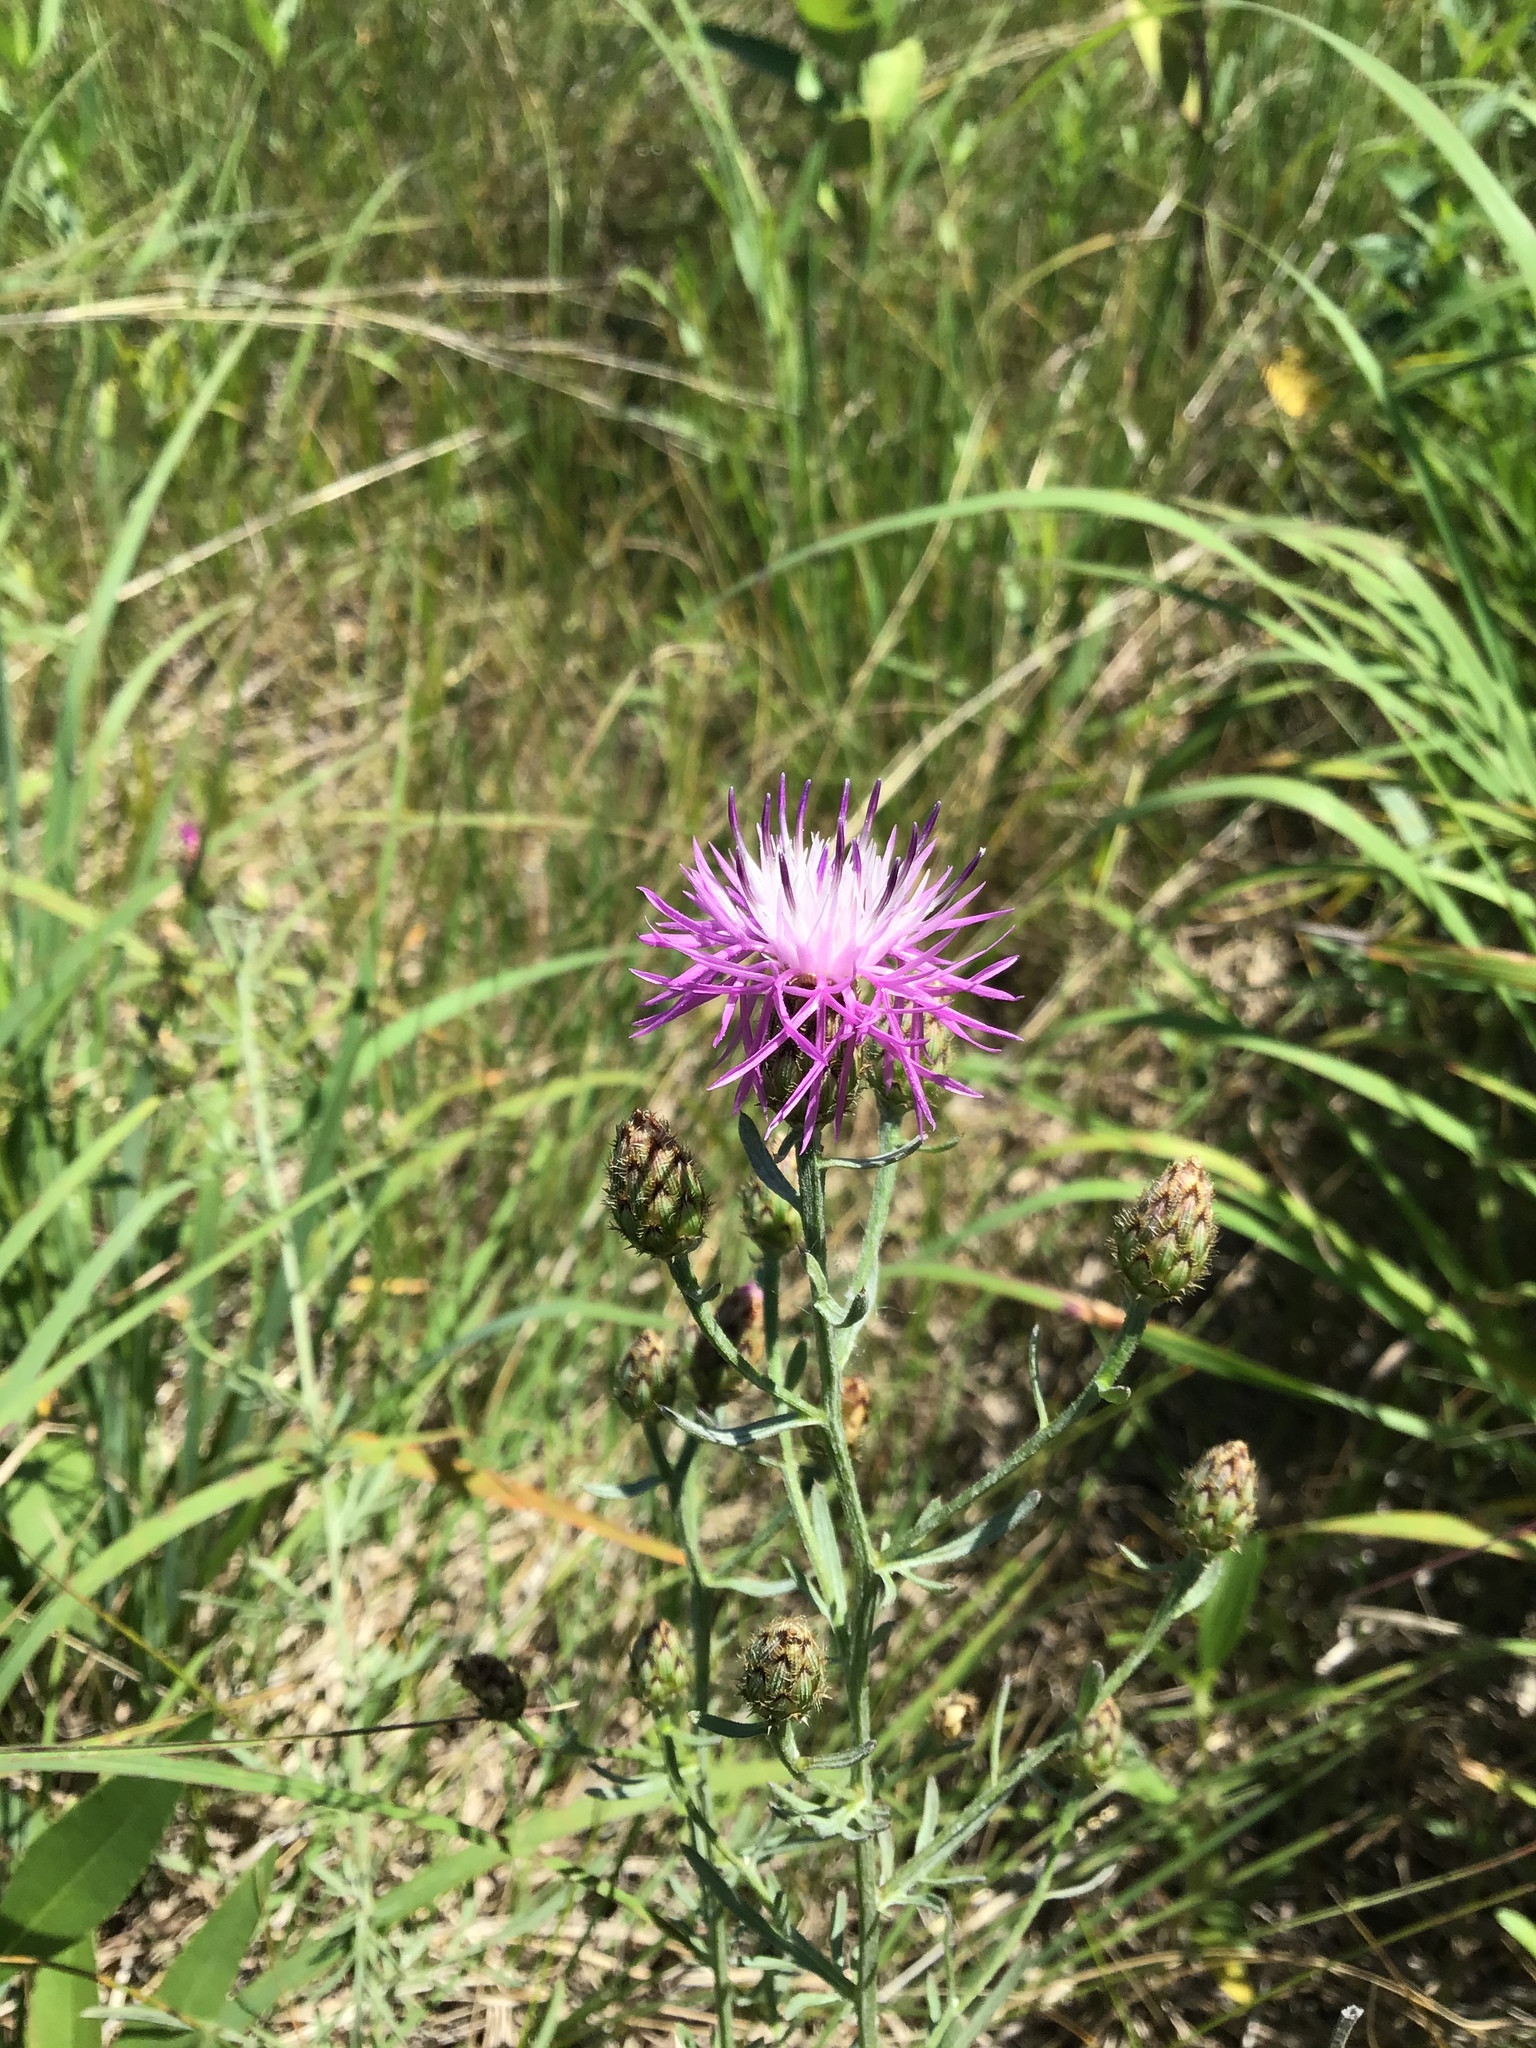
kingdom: Plantae
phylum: Tracheophyta
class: Magnoliopsida
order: Asterales
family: Asteraceae
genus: Centaurea
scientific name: Centaurea stoebe
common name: Spotted knapweed
